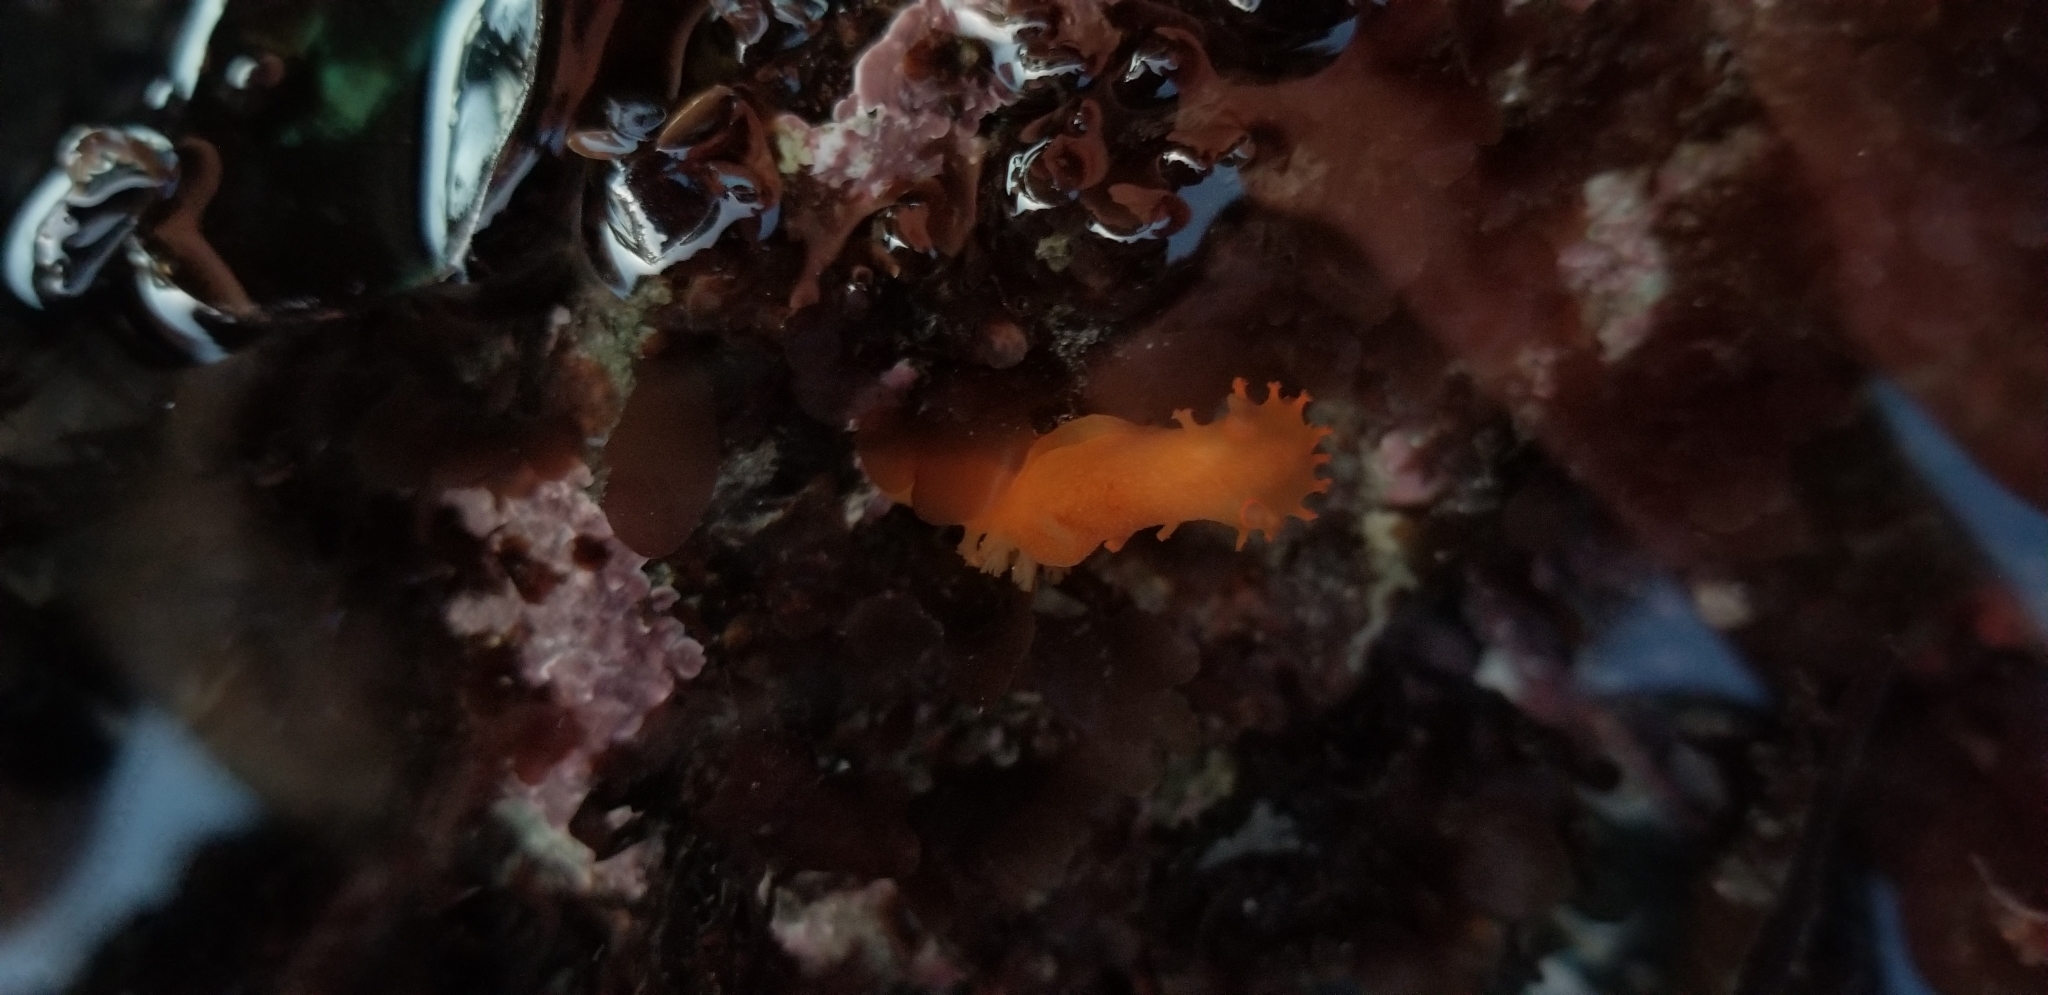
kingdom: Animalia
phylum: Mollusca
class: Gastropoda
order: Nudibranchia
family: Polyceridae
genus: Triopha
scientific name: Triopha maculata
